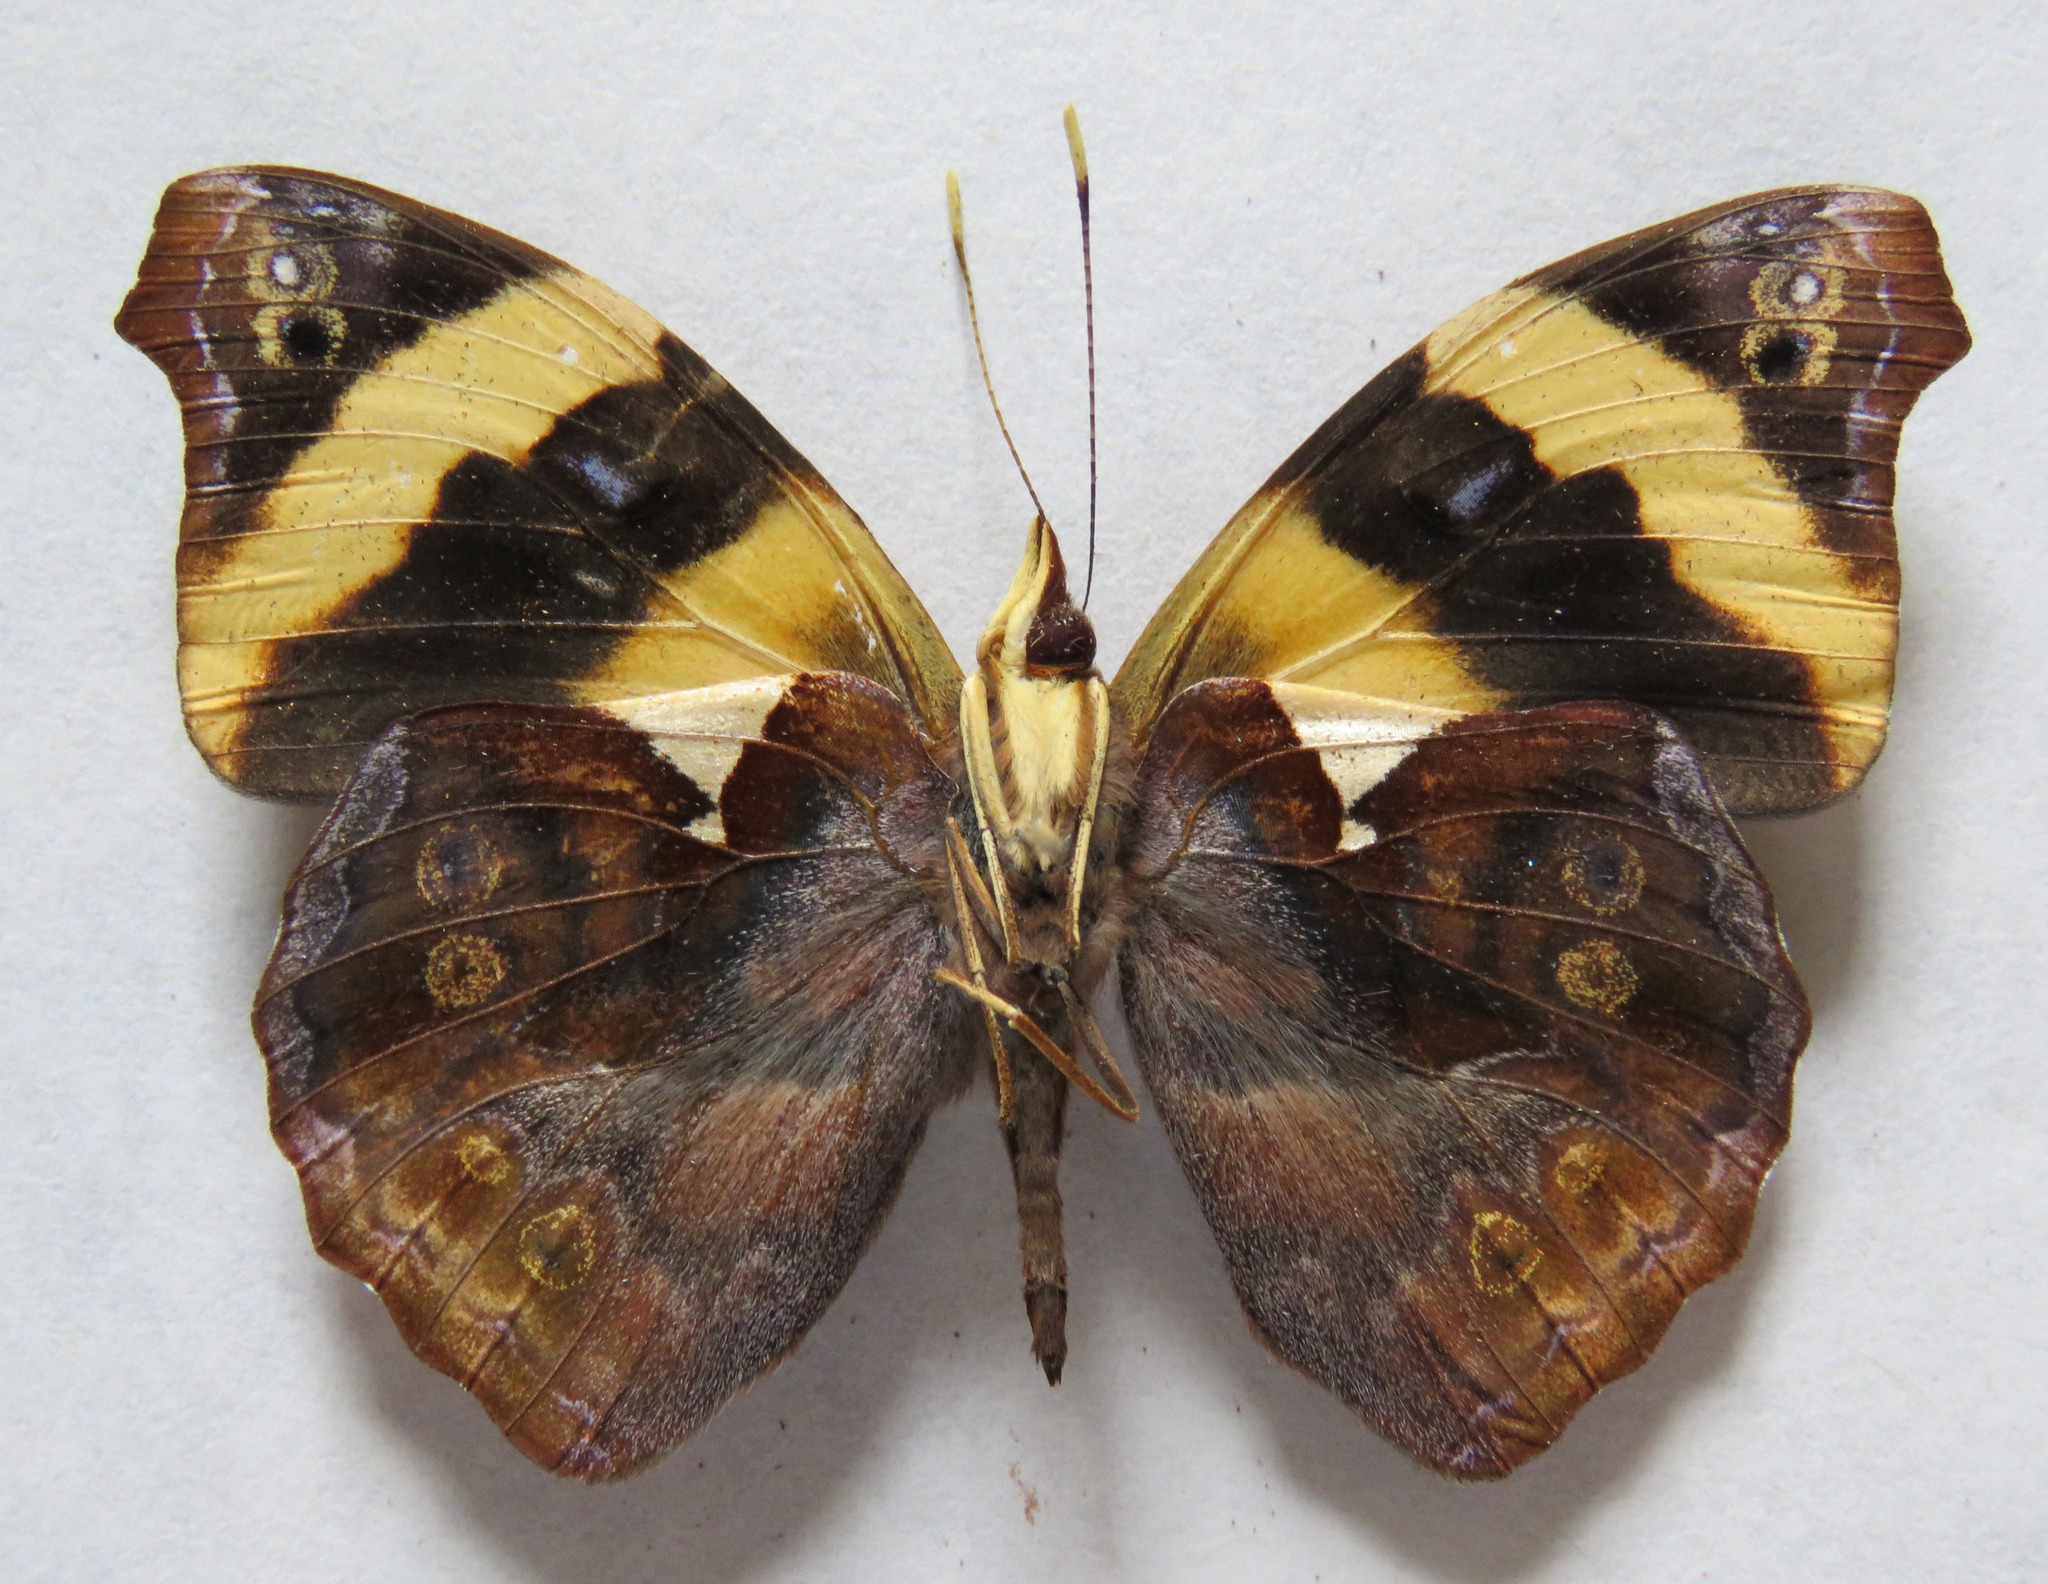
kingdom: Animalia
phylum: Arthropoda
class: Insecta
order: Lepidoptera
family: Nymphalidae
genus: Epiphile
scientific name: Epiphile adrasta
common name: Common banner
